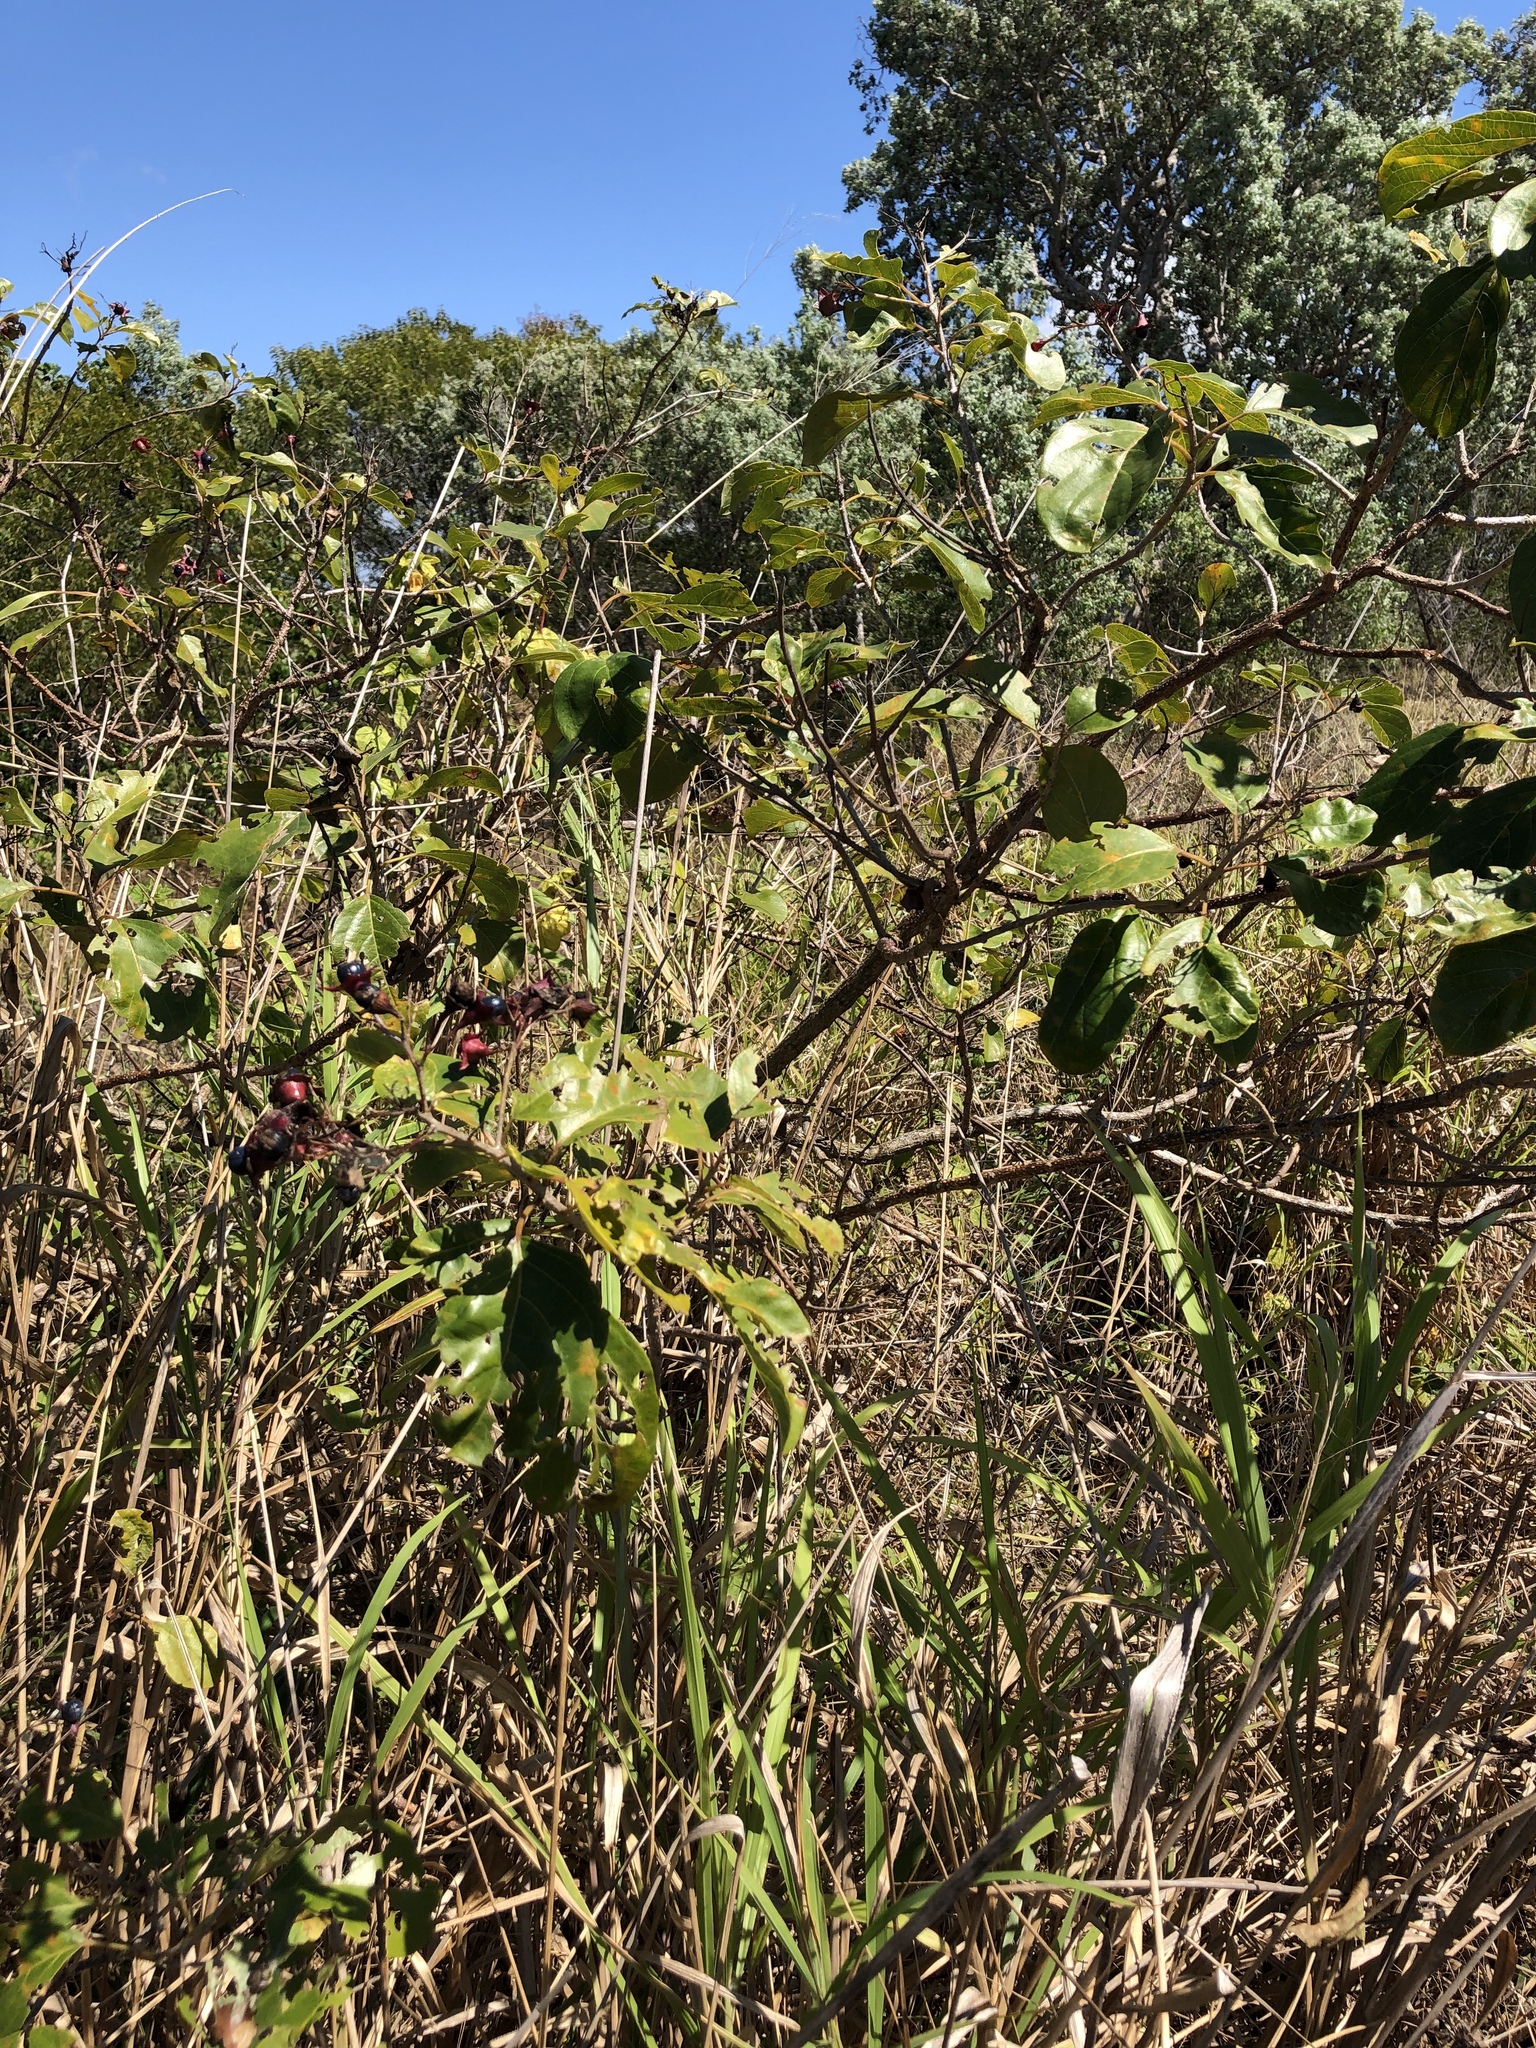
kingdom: Plantae
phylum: Tracheophyta
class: Magnoliopsida
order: Lamiales
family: Lamiaceae
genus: Clerodendrum
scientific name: Clerodendrum floribundum
